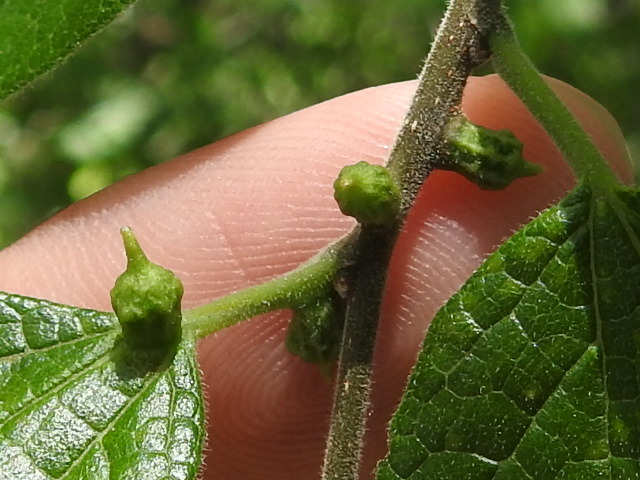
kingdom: Animalia
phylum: Arthropoda
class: Insecta
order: Diptera
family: Cecidomyiidae
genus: Celticecis
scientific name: Celticecis ramicola
